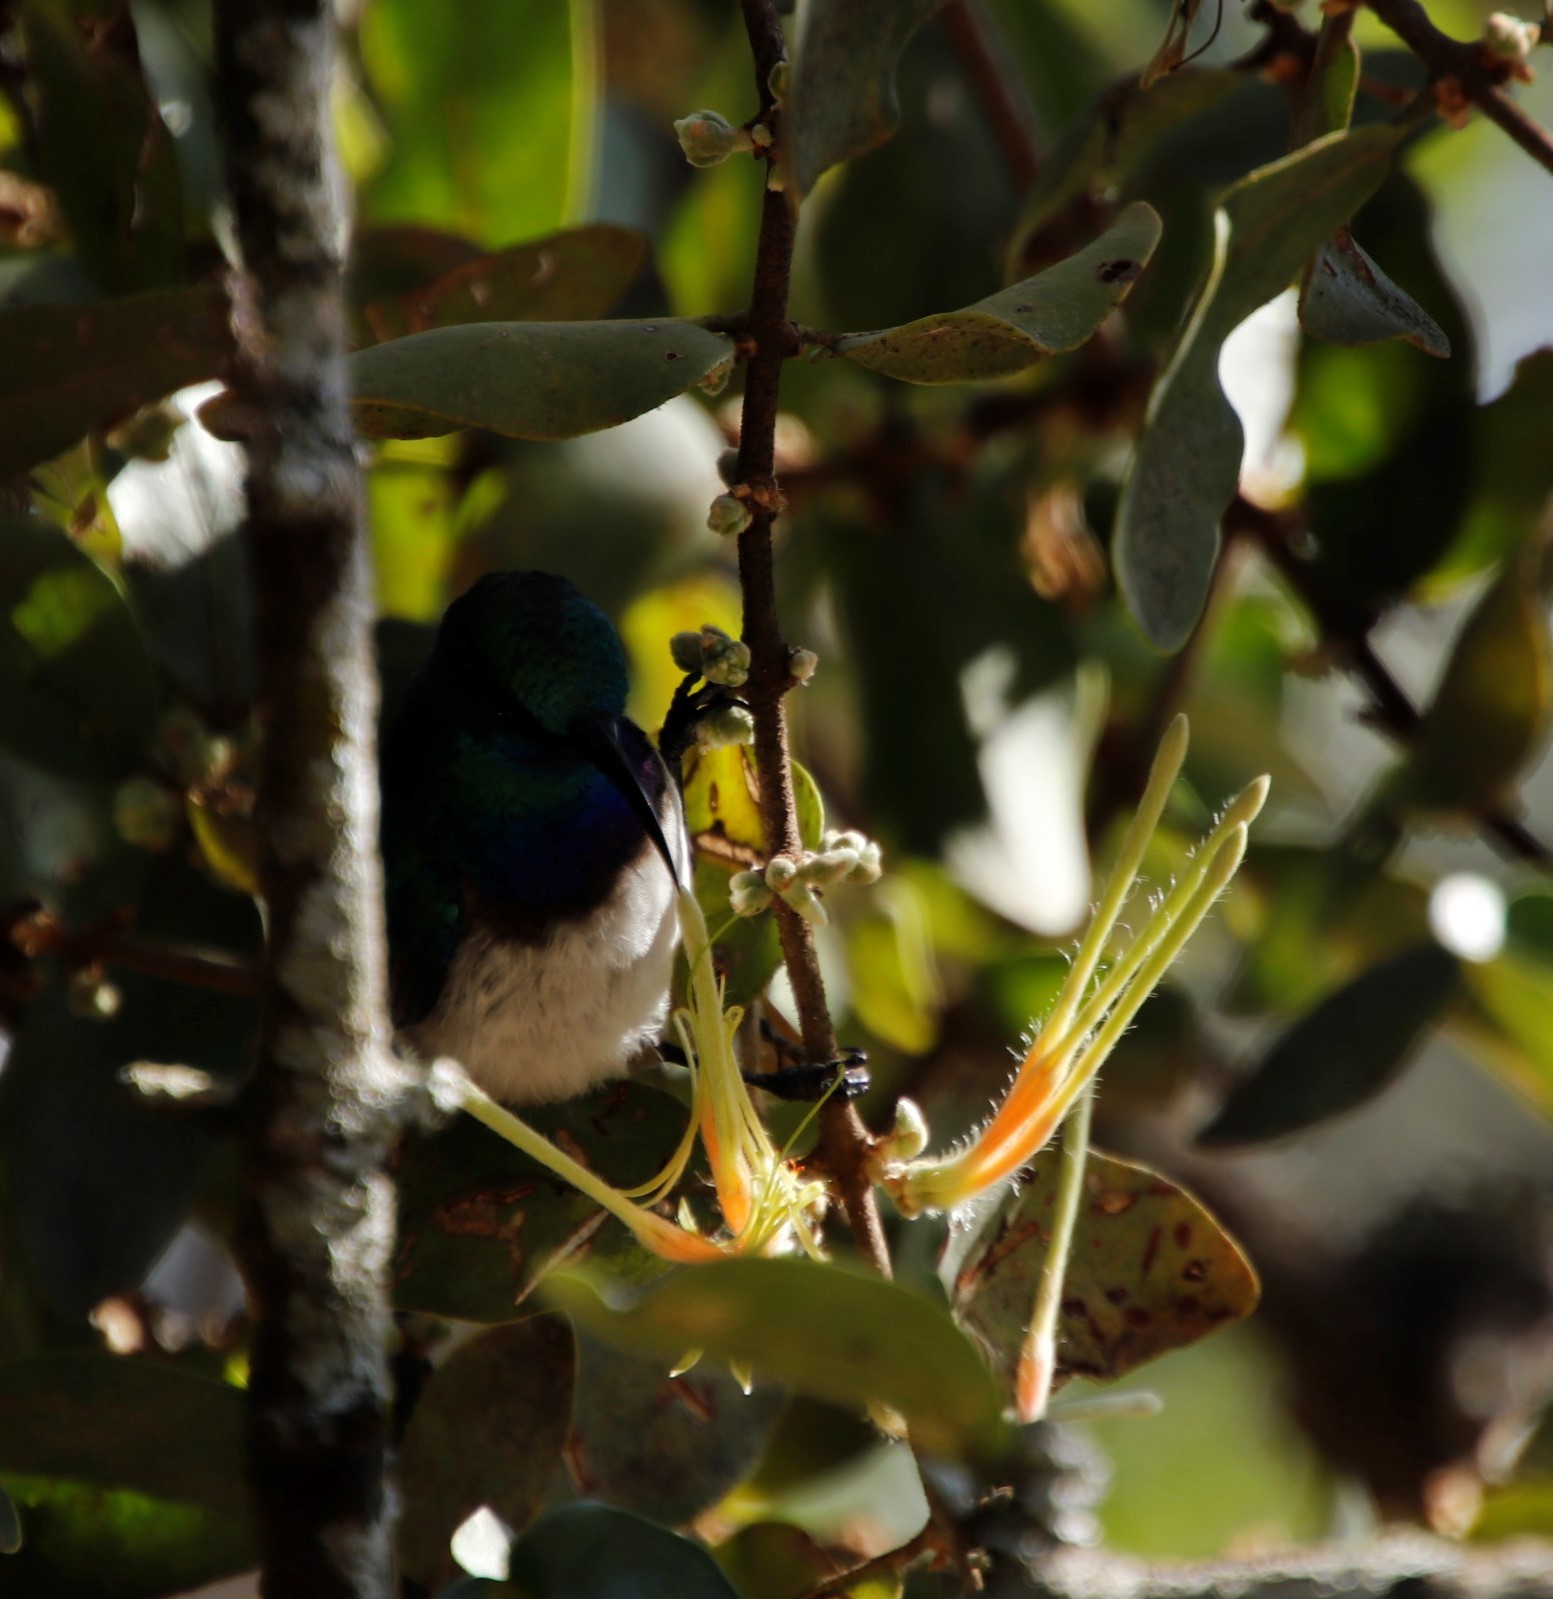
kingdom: Animalia
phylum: Chordata
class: Aves
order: Passeriformes
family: Nectariniidae
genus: Cinnyris
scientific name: Cinnyris talatala
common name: White-bellied sunbird
